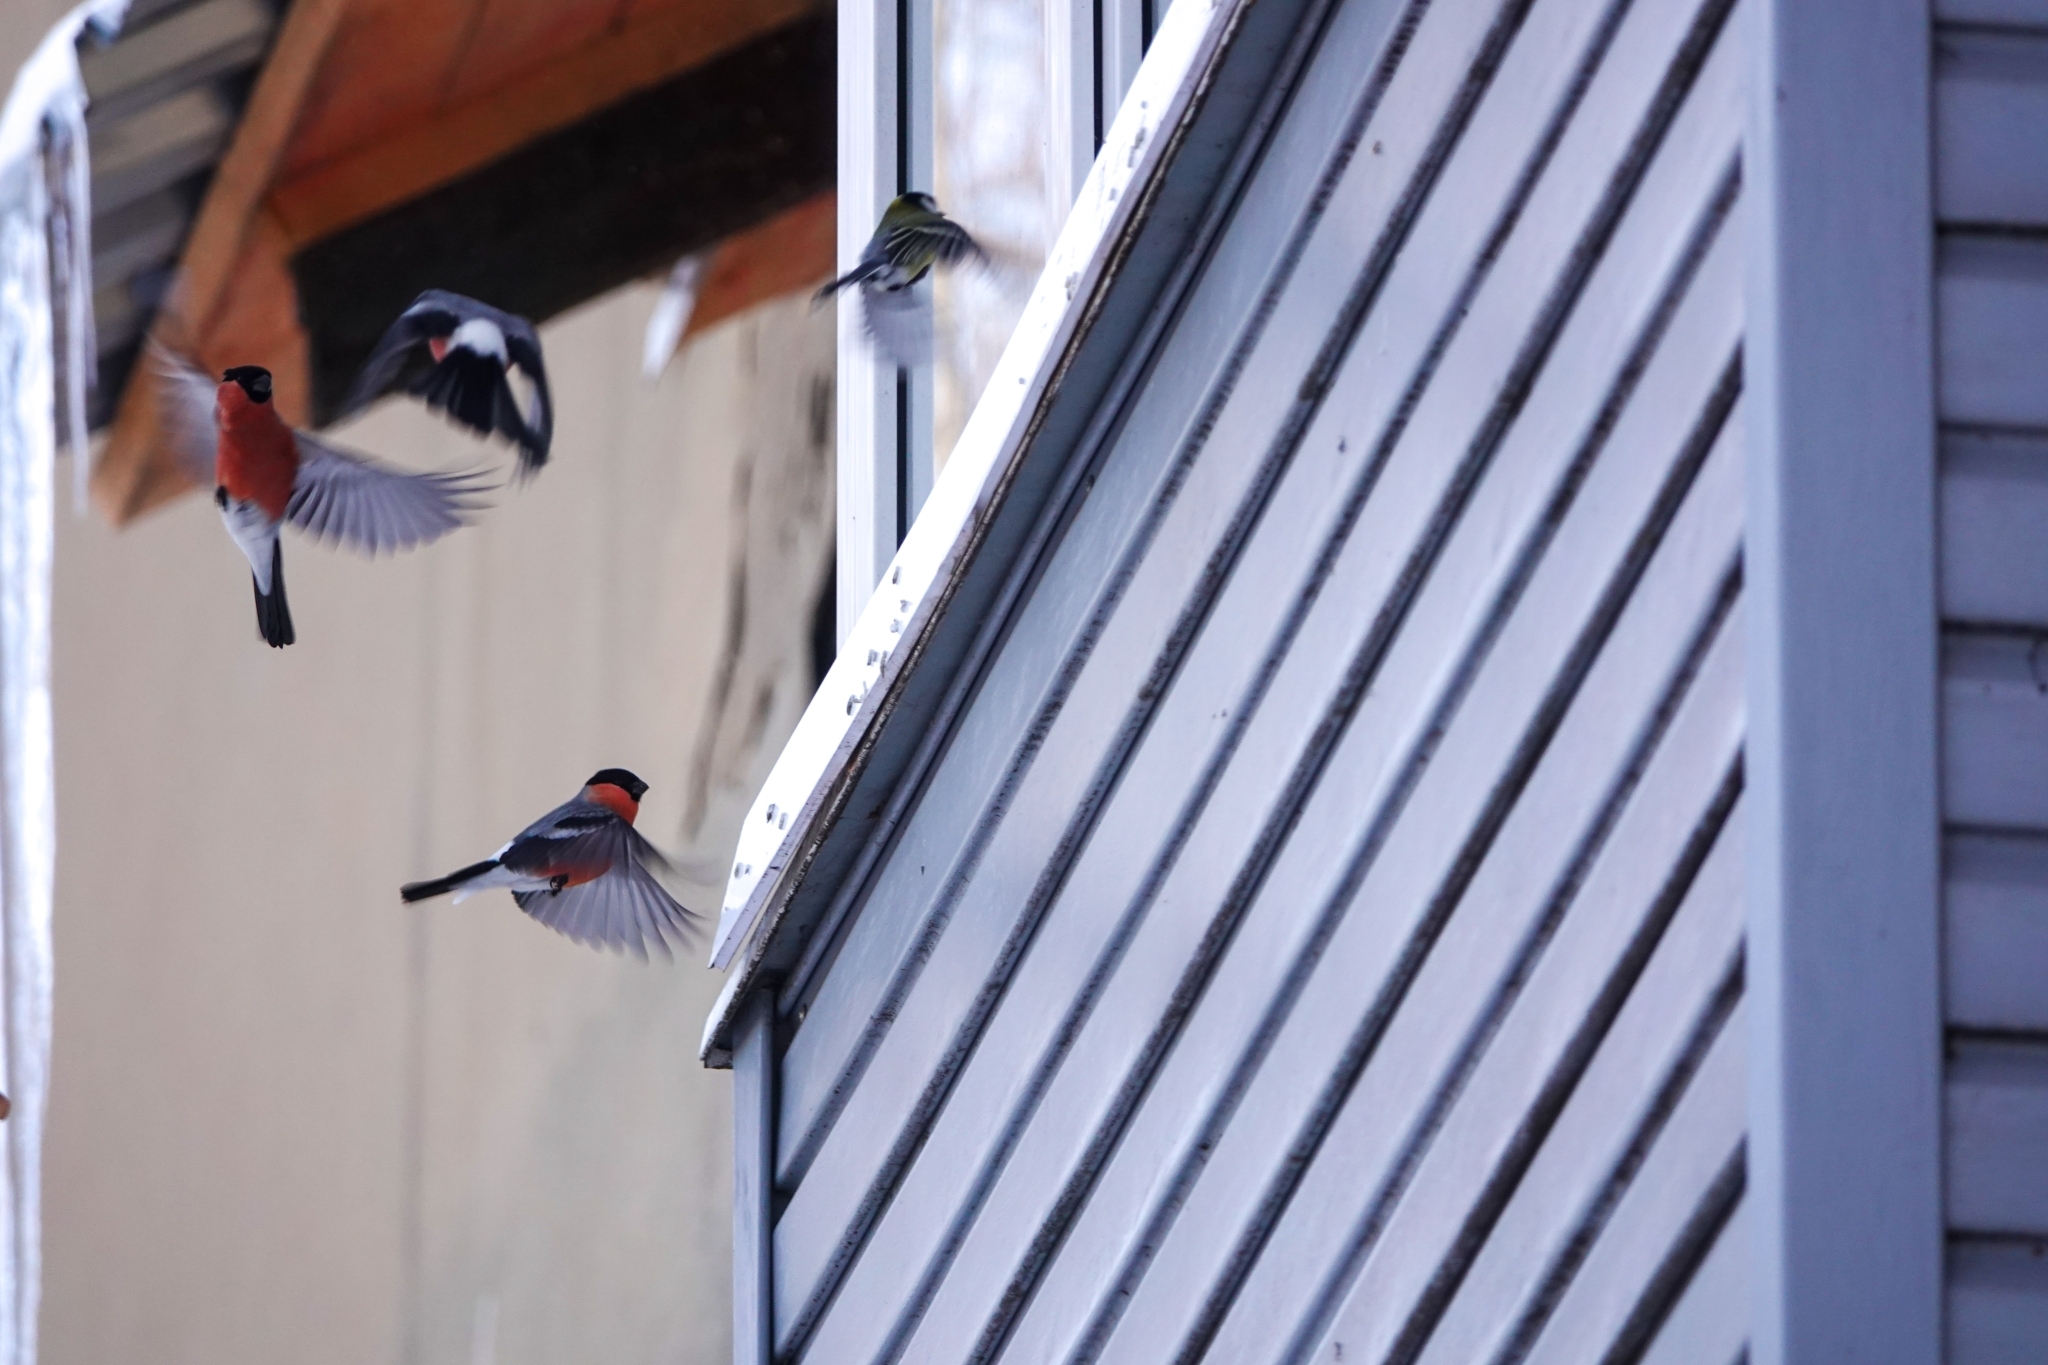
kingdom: Animalia
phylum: Chordata
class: Aves
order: Passeriformes
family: Fringillidae
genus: Pyrrhula
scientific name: Pyrrhula pyrrhula
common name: Eurasian bullfinch
